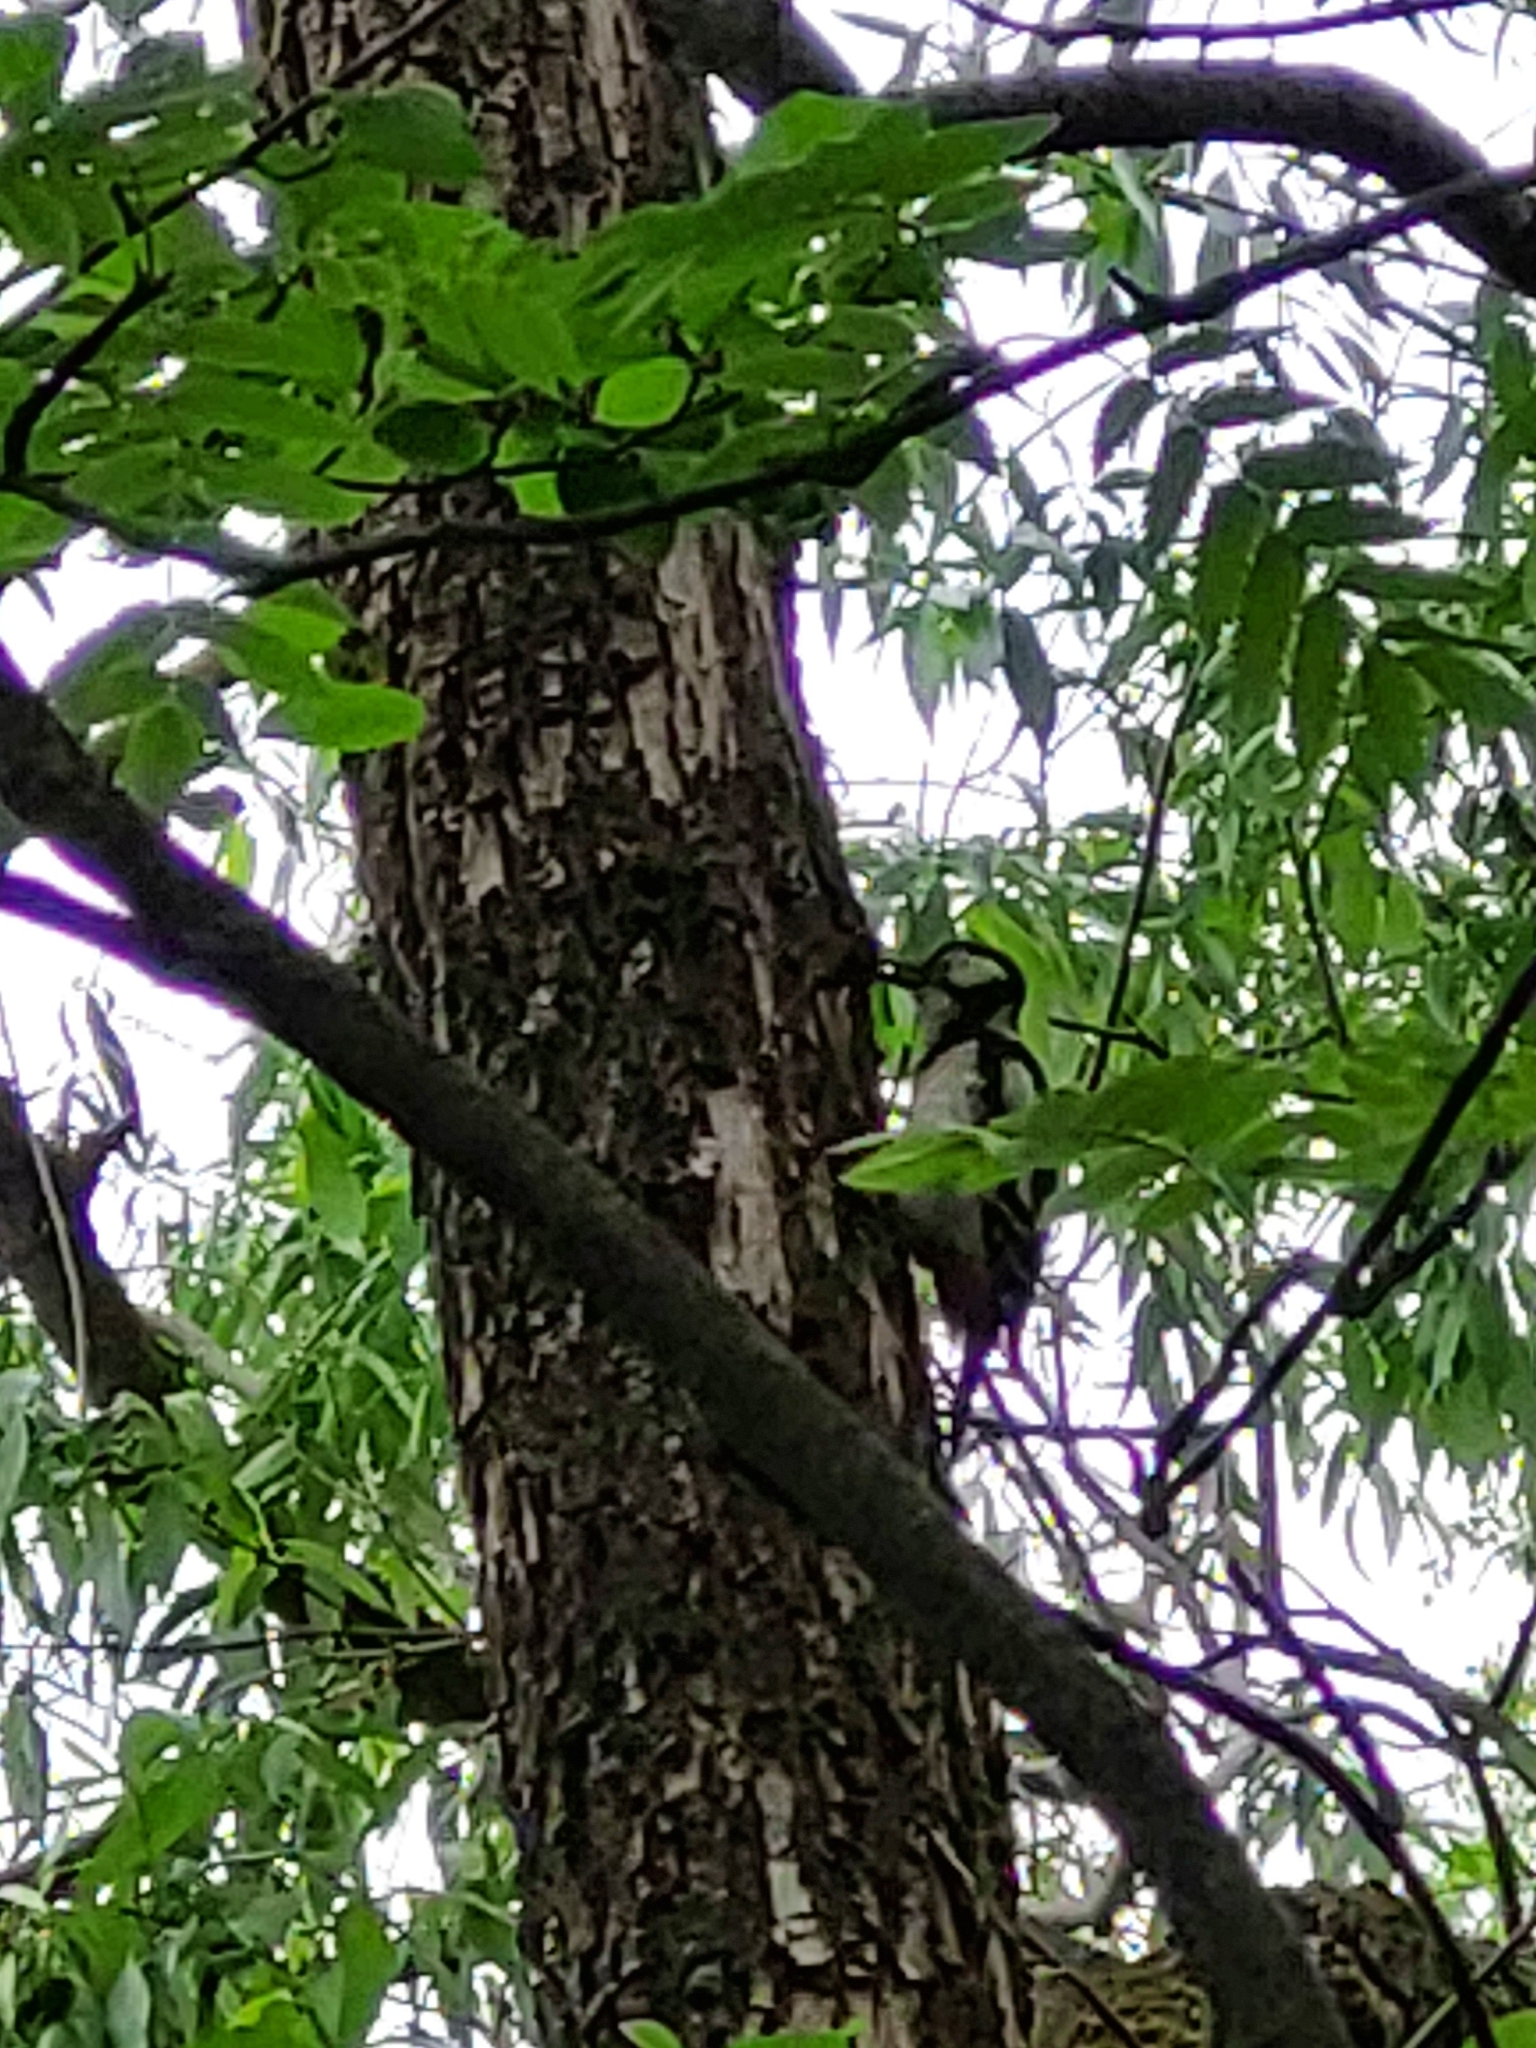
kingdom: Animalia
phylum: Chordata
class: Aves
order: Piciformes
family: Picidae
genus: Dendrocopos
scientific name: Dendrocopos major
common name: Great spotted woodpecker
